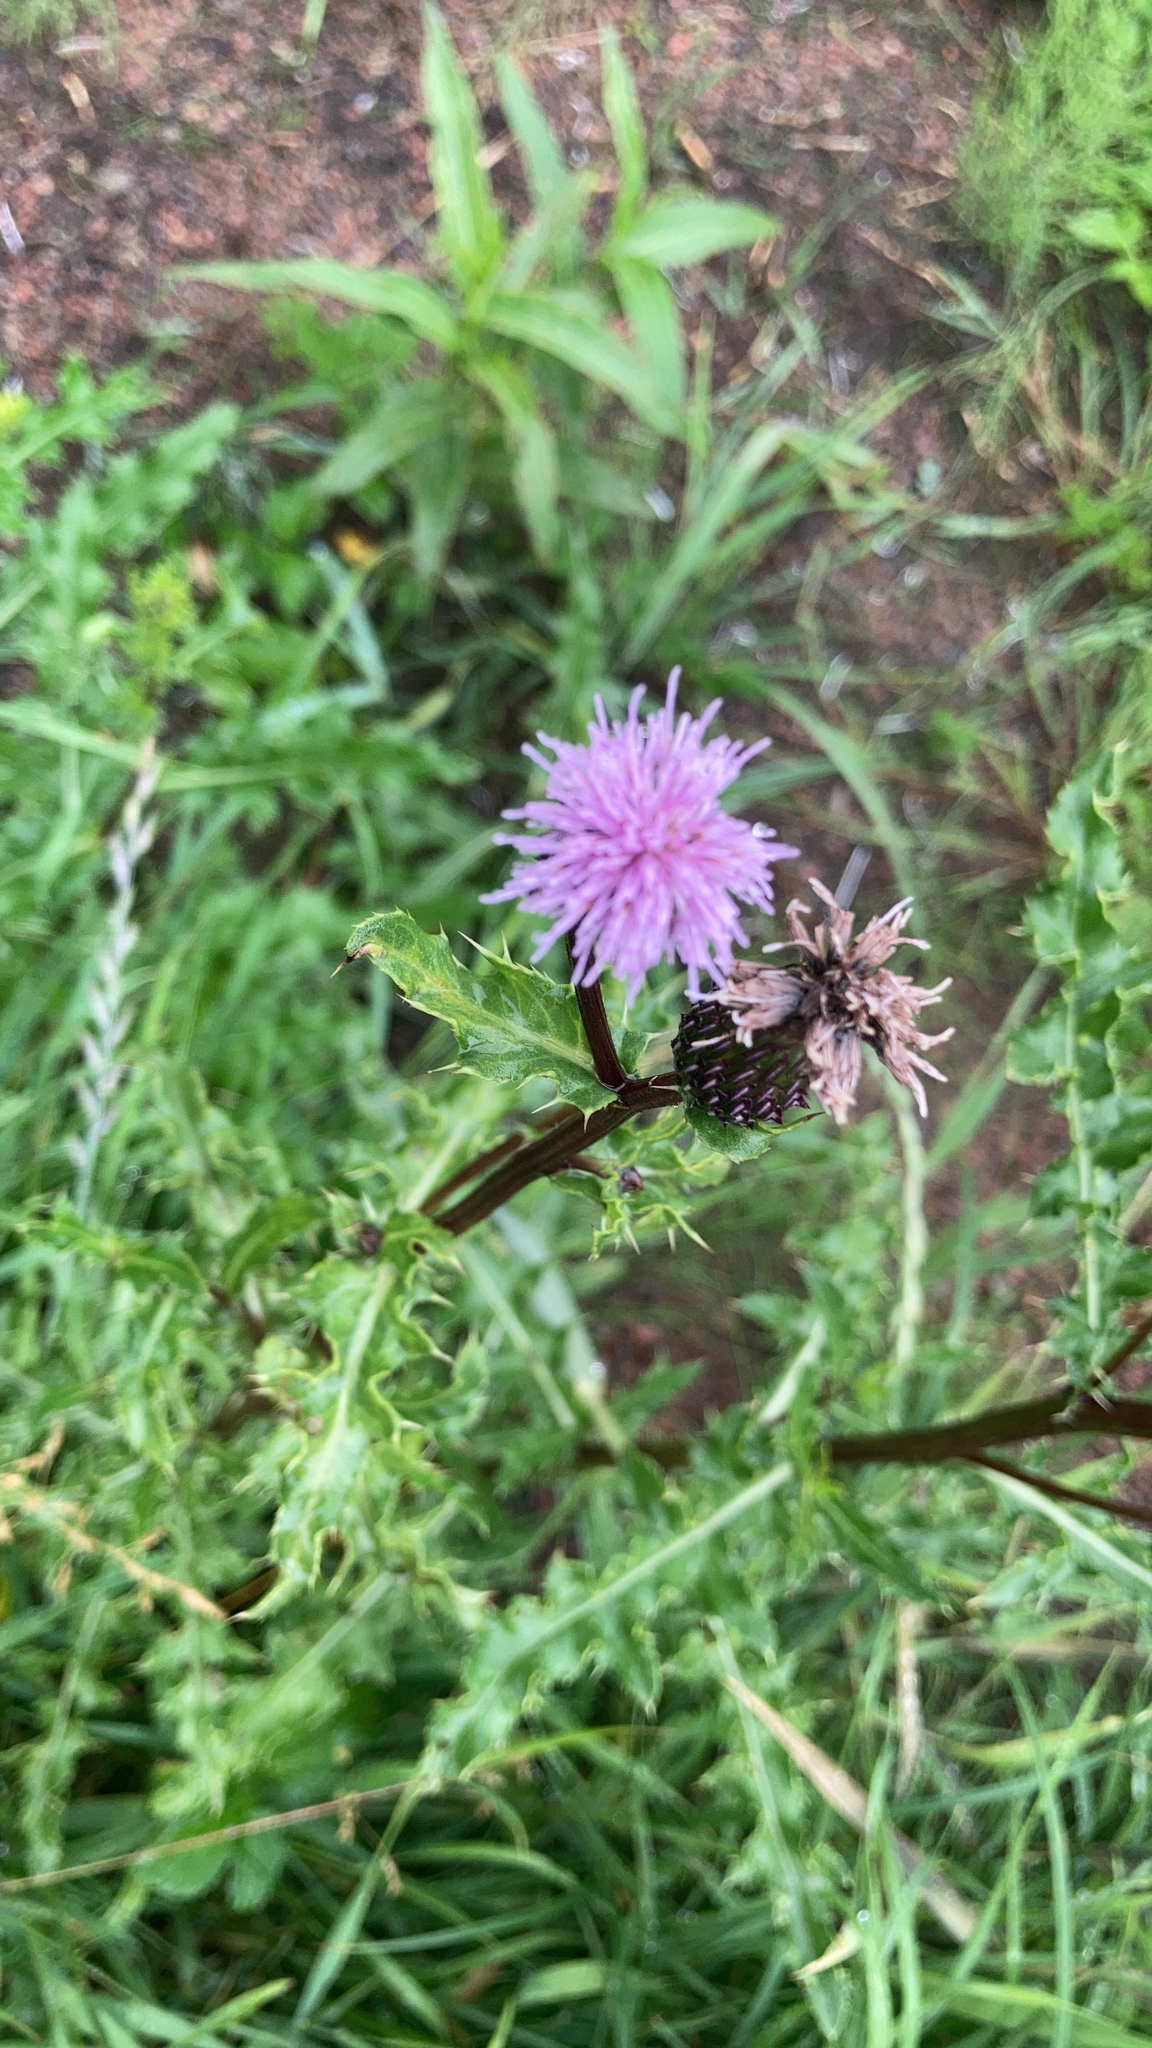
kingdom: Plantae
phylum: Tracheophyta
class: Magnoliopsida
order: Asterales
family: Asteraceae
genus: Cirsium
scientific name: Cirsium arvense
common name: Creeping thistle
